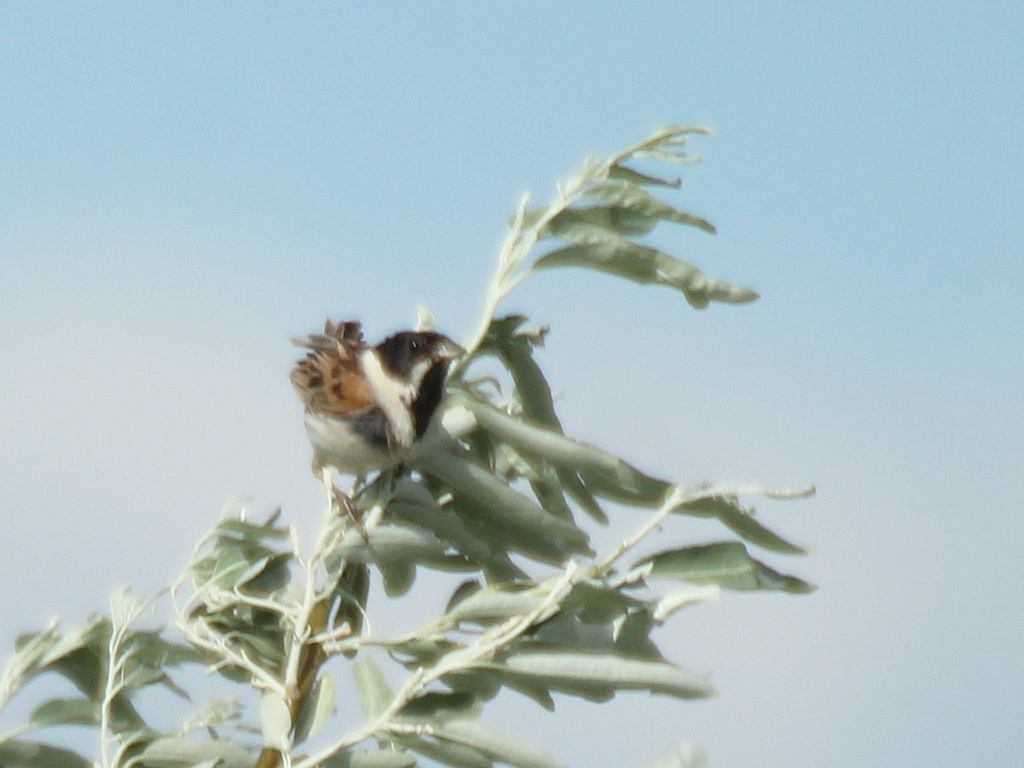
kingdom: Animalia
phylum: Chordata
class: Aves
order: Passeriformes
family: Emberizidae
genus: Emberiza
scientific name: Emberiza schoeniclus
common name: Reed bunting
